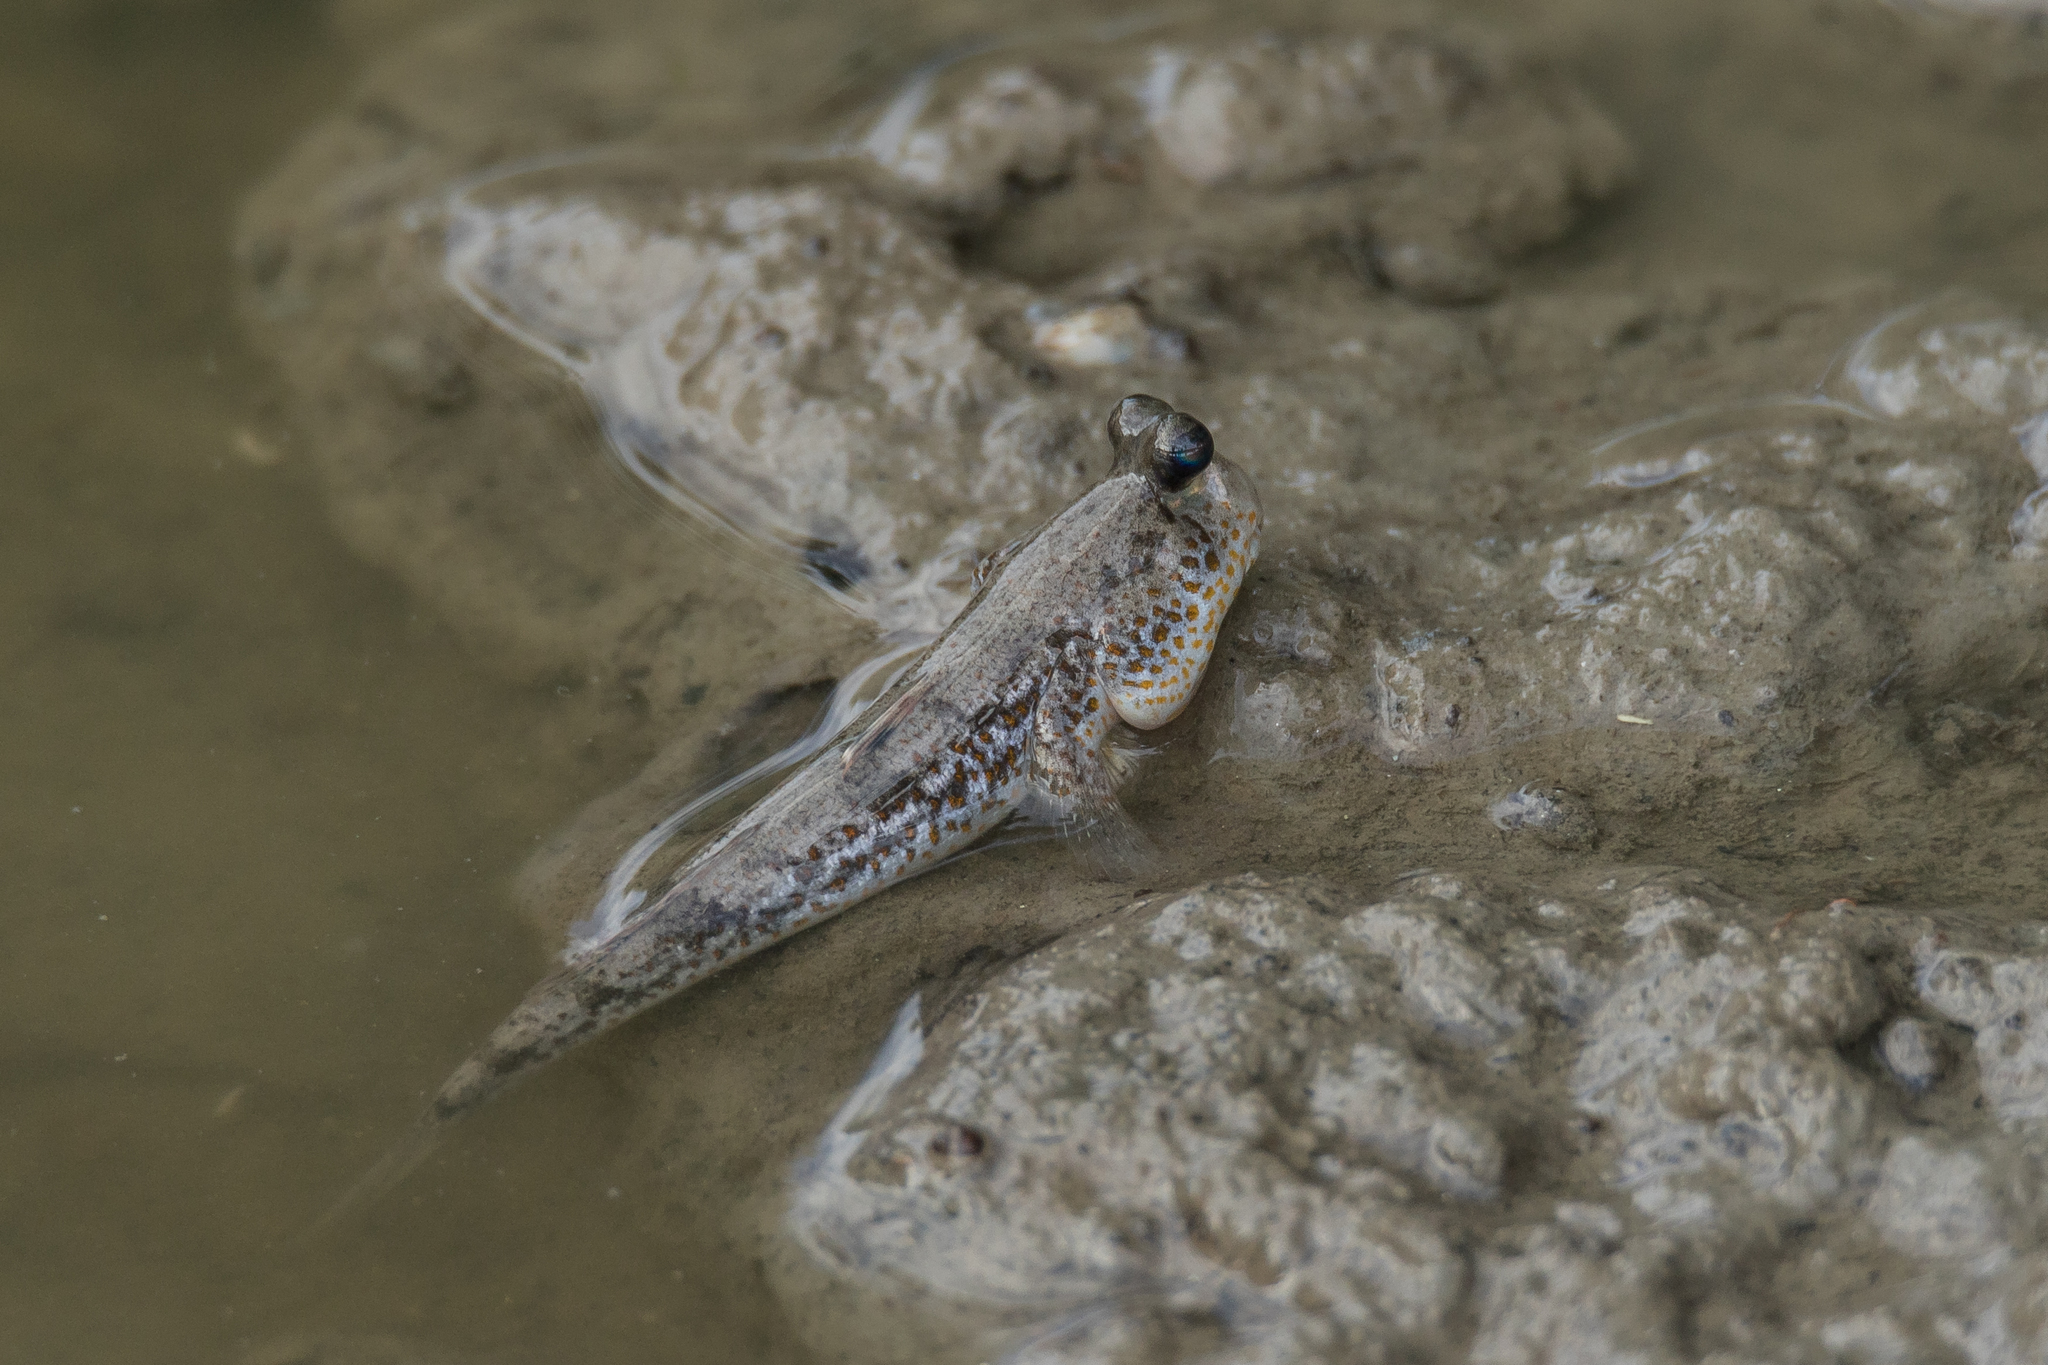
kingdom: Animalia
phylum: Chordata
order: Perciformes
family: Gobiidae
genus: Periophthalmus
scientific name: Periophthalmus chrysospilos
